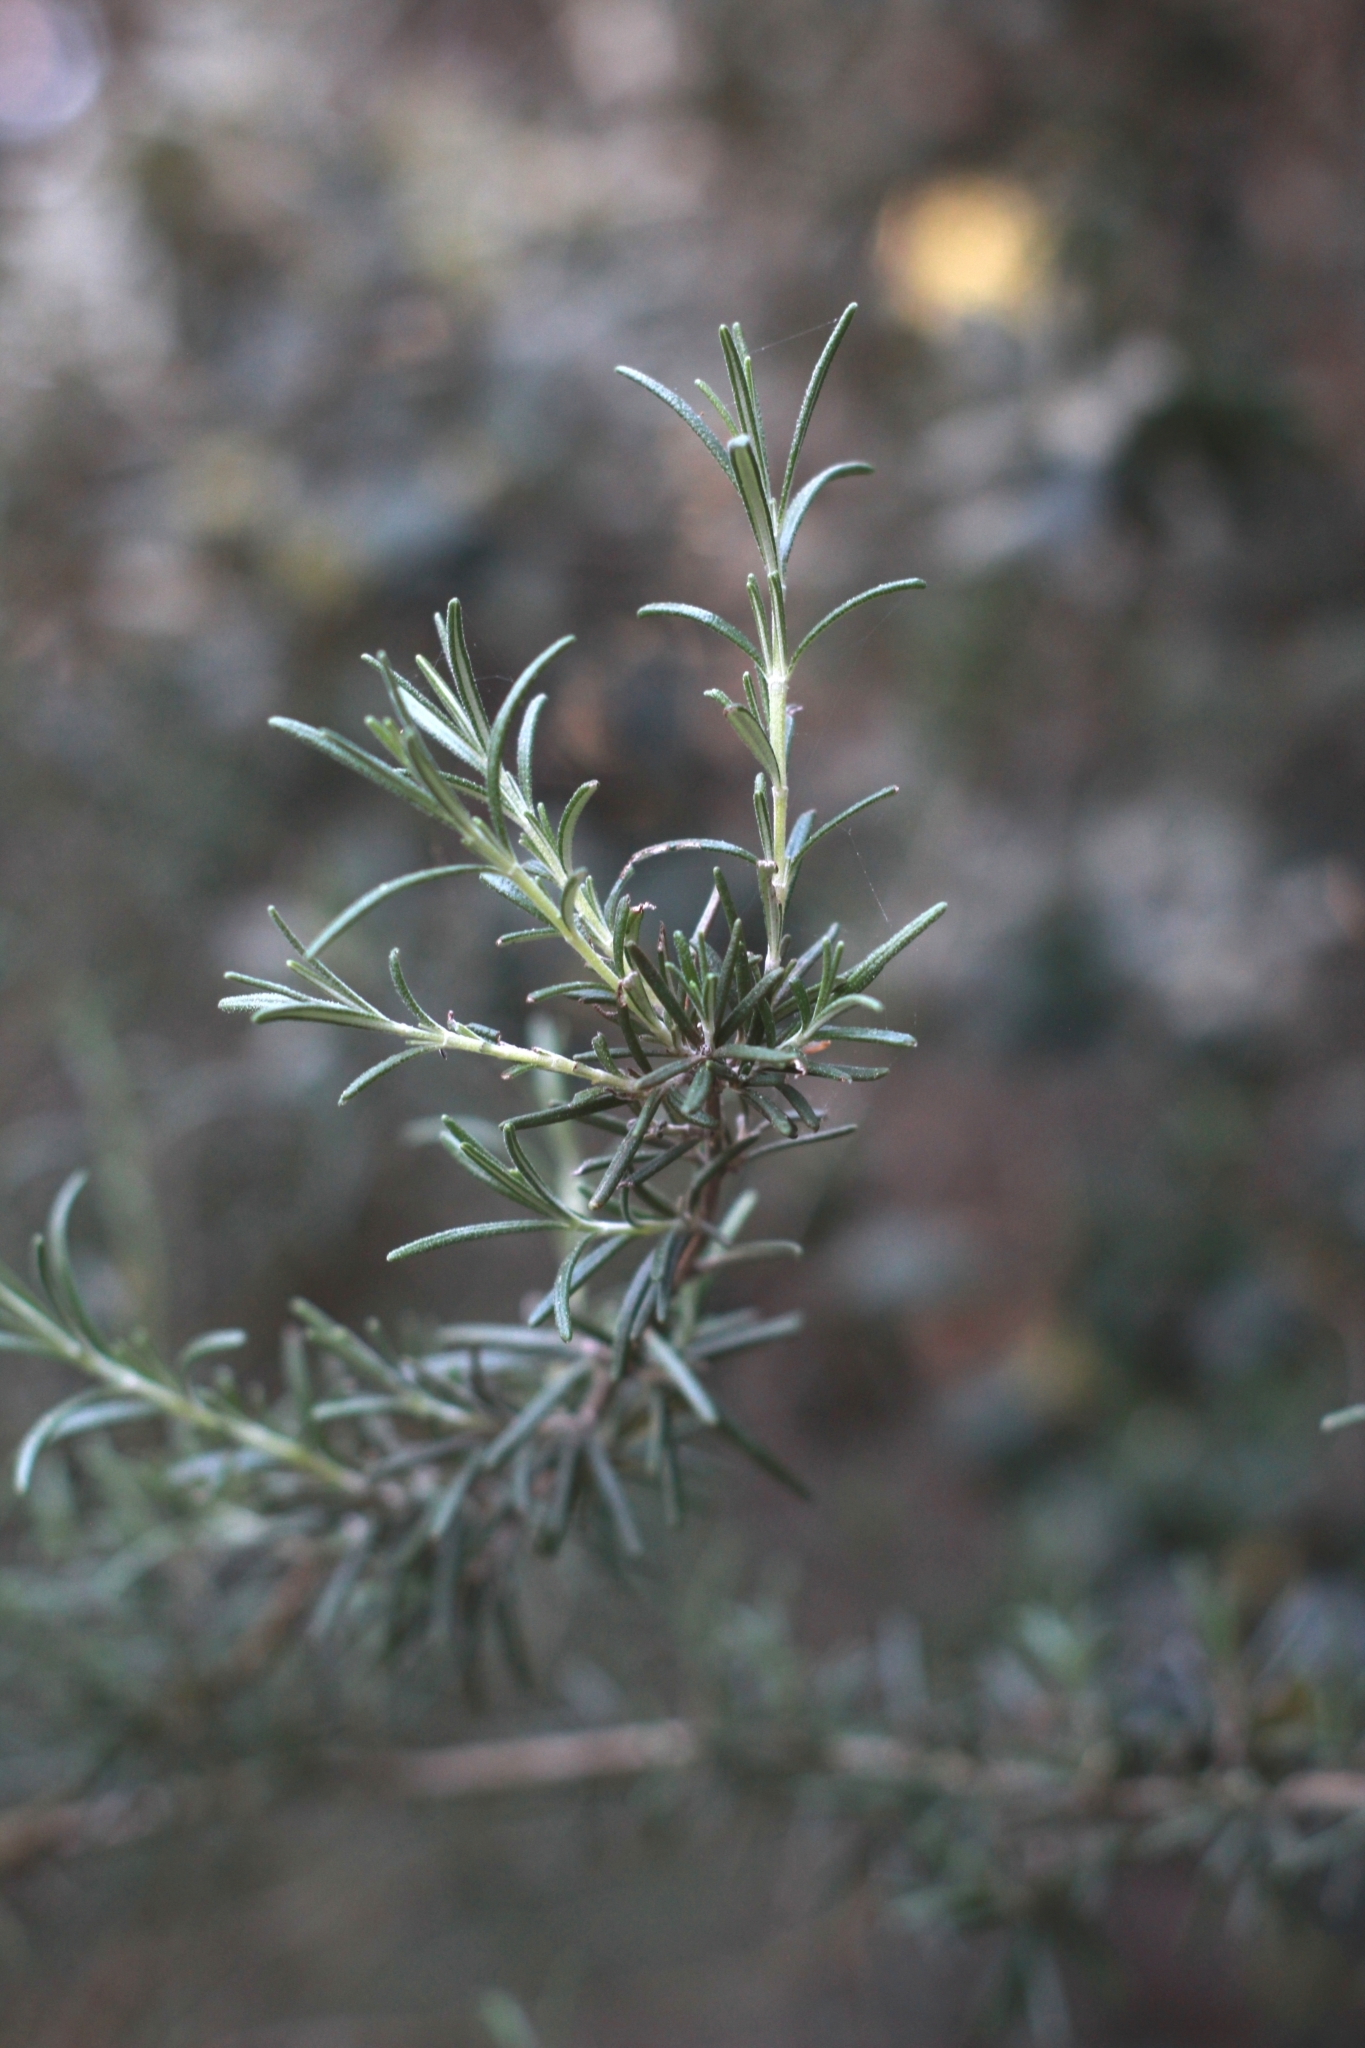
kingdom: Plantae
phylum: Tracheophyta
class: Magnoliopsida
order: Lamiales
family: Lamiaceae
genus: Salvia
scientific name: Salvia rosmarinus
